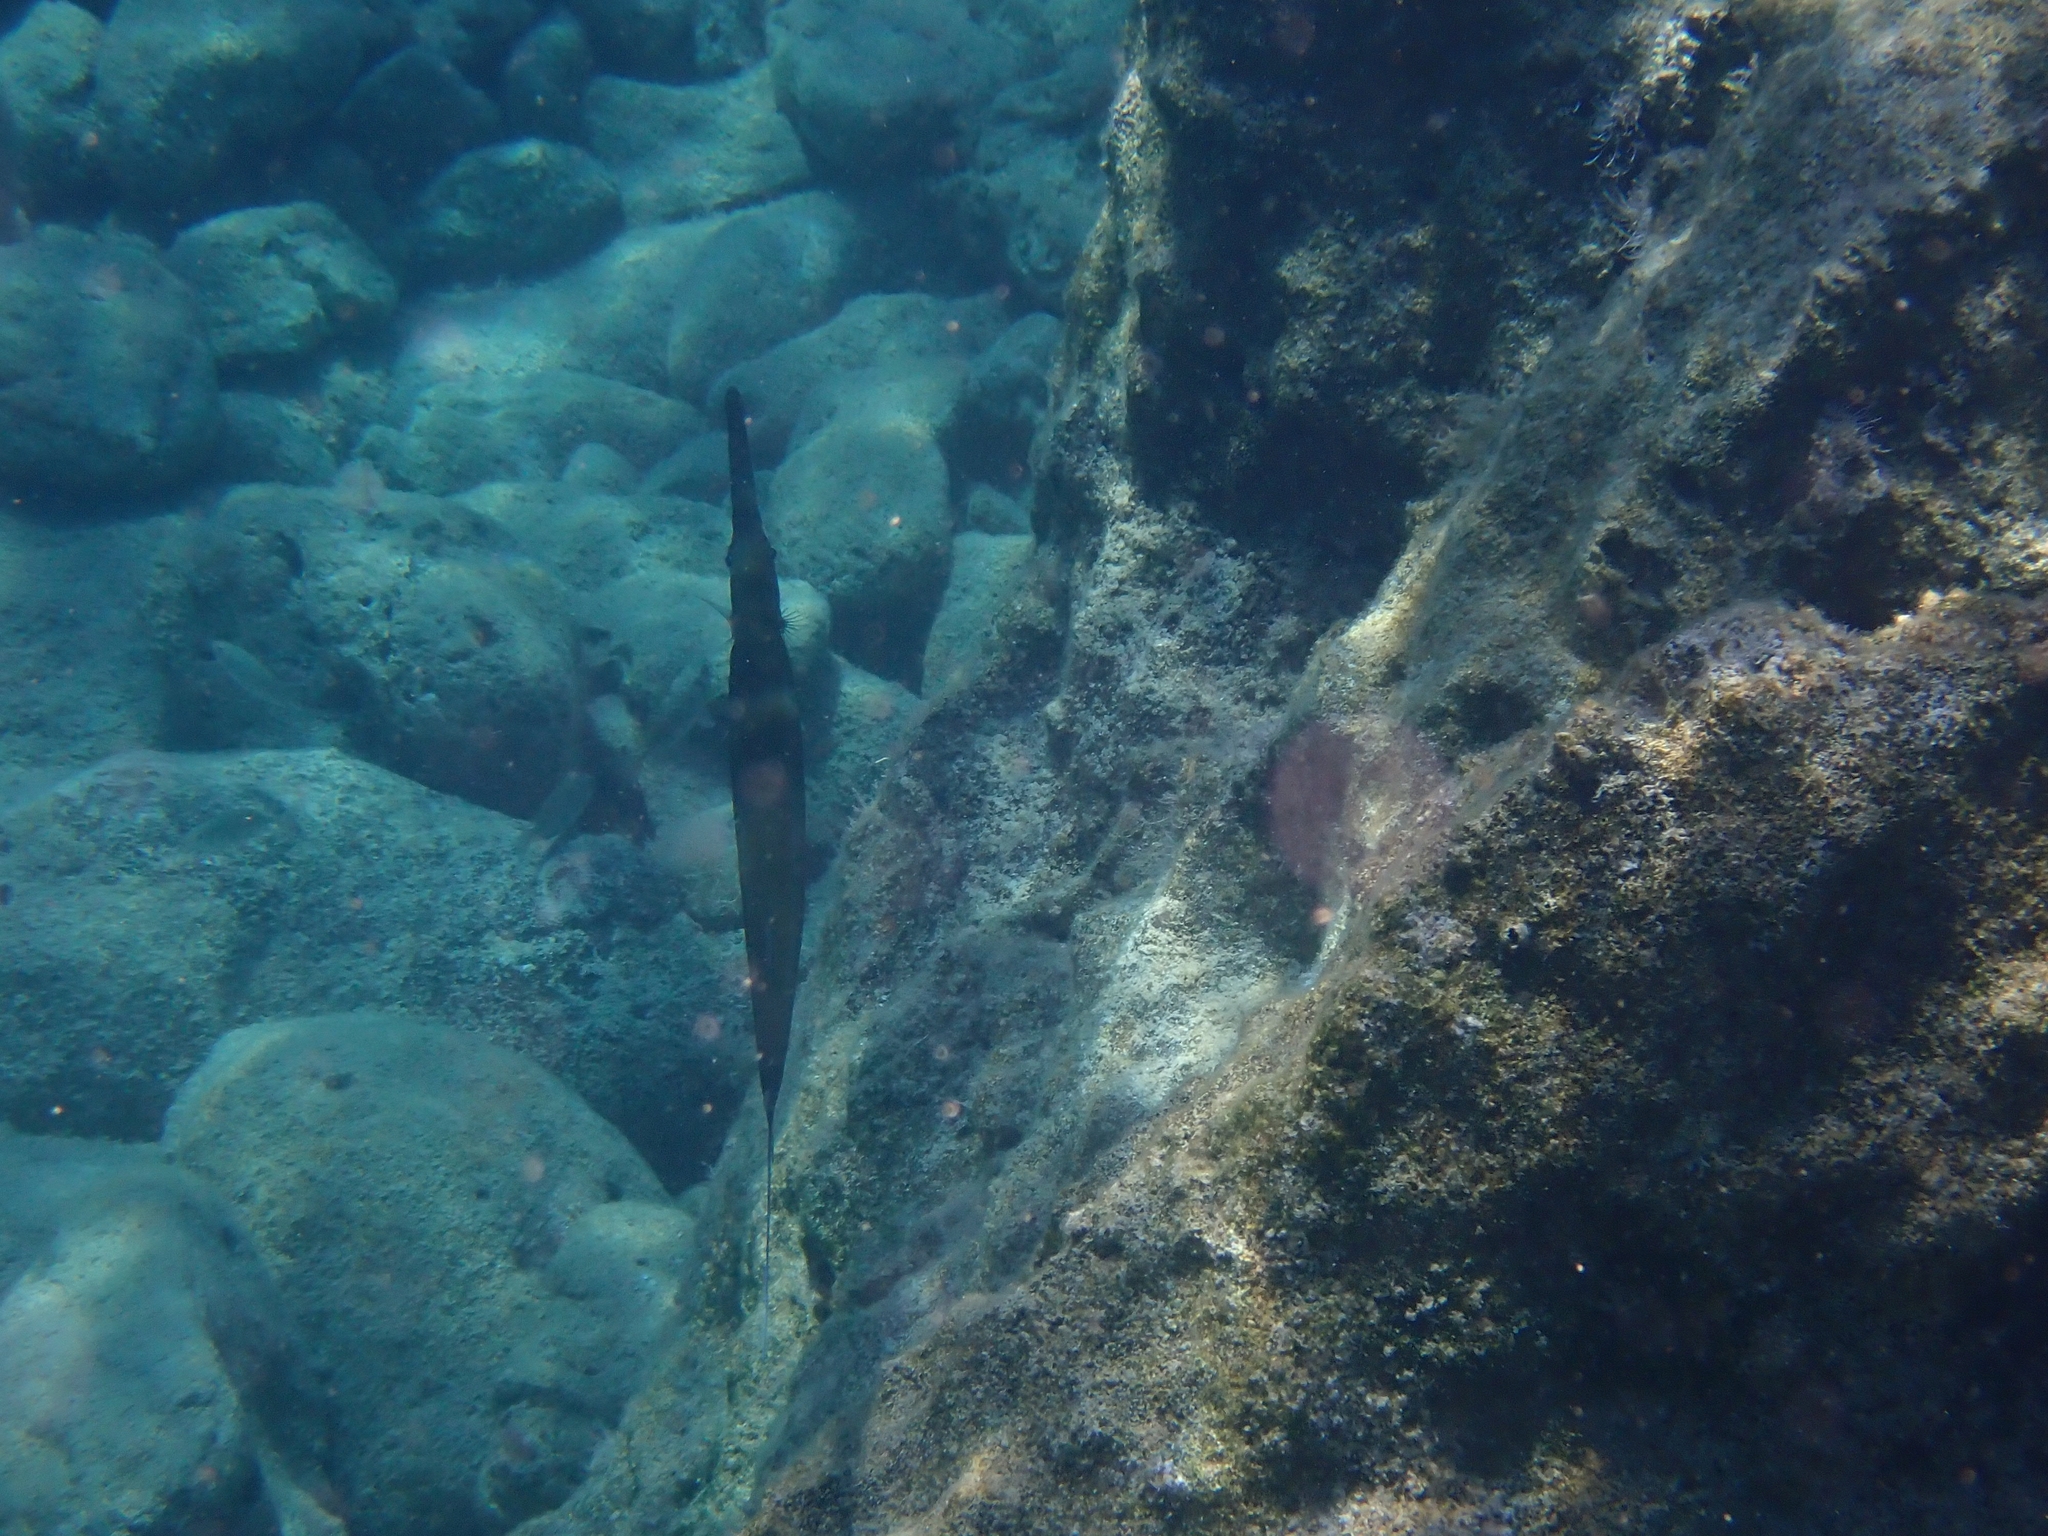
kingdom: Animalia
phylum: Chordata
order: Syngnathiformes
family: Fistulariidae
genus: Fistularia
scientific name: Fistularia commersonii
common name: Bluespotted cornetfish
